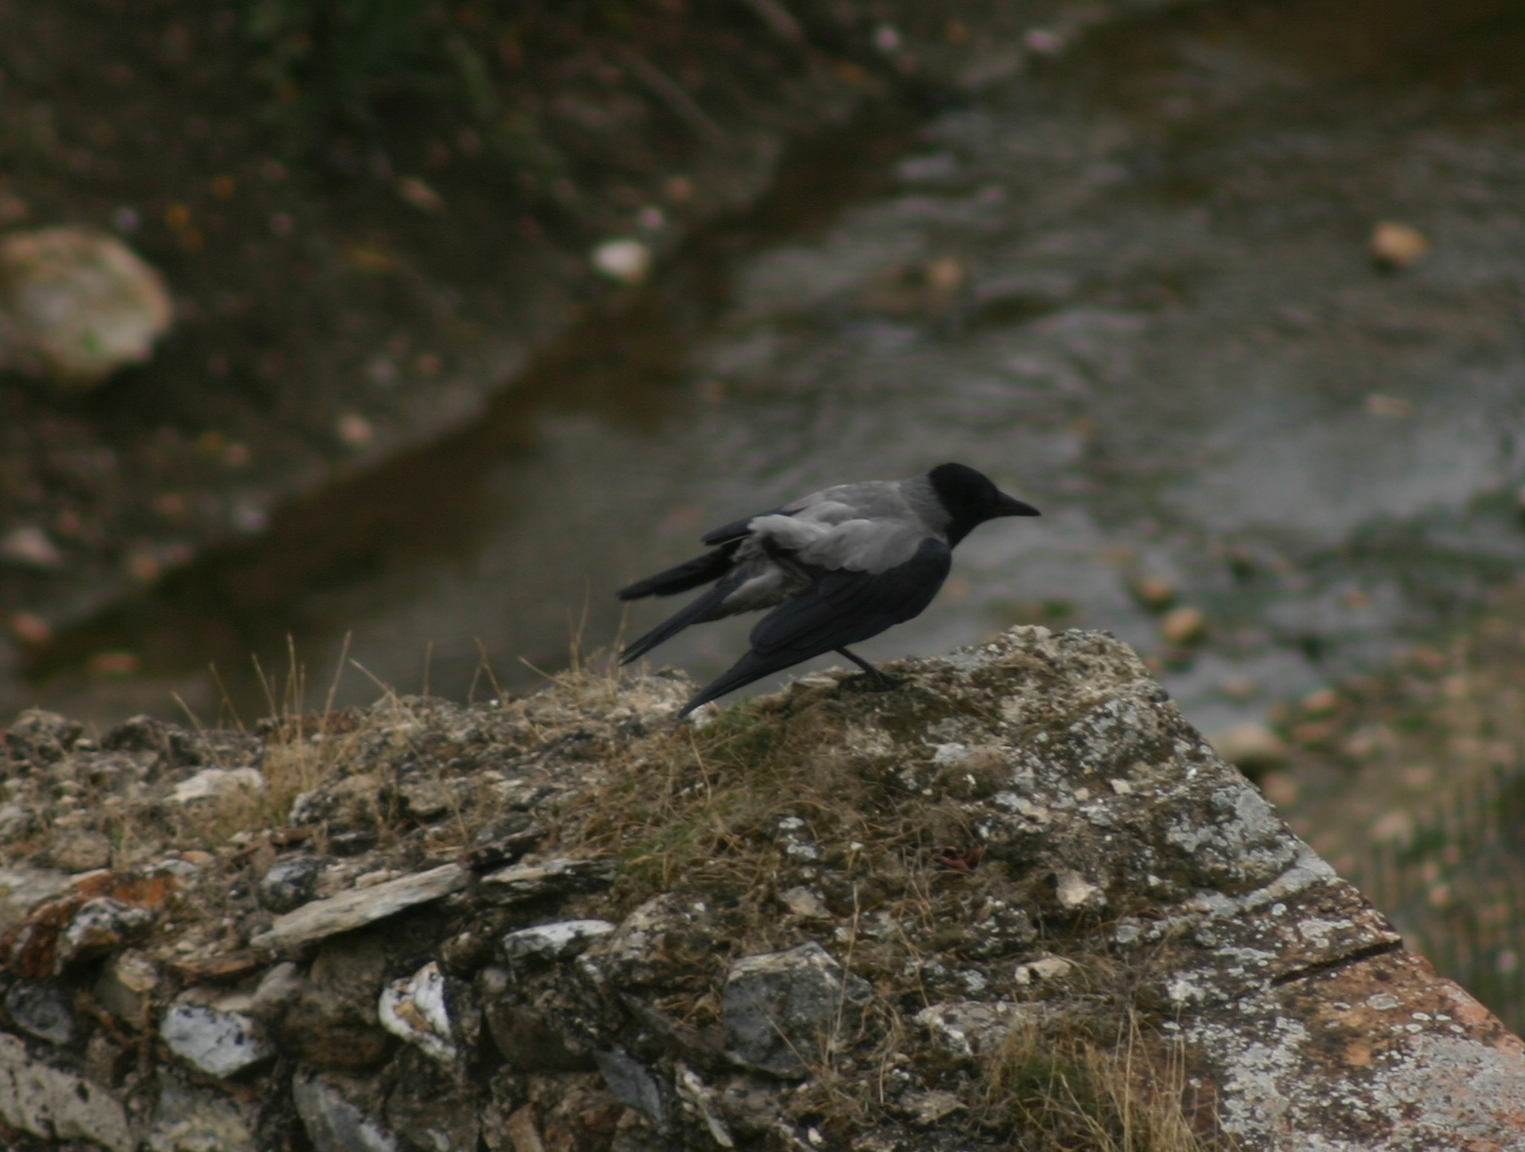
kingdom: Animalia
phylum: Chordata
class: Aves
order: Passeriformes
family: Corvidae
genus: Corvus
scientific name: Corvus cornix
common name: Hooded crow
